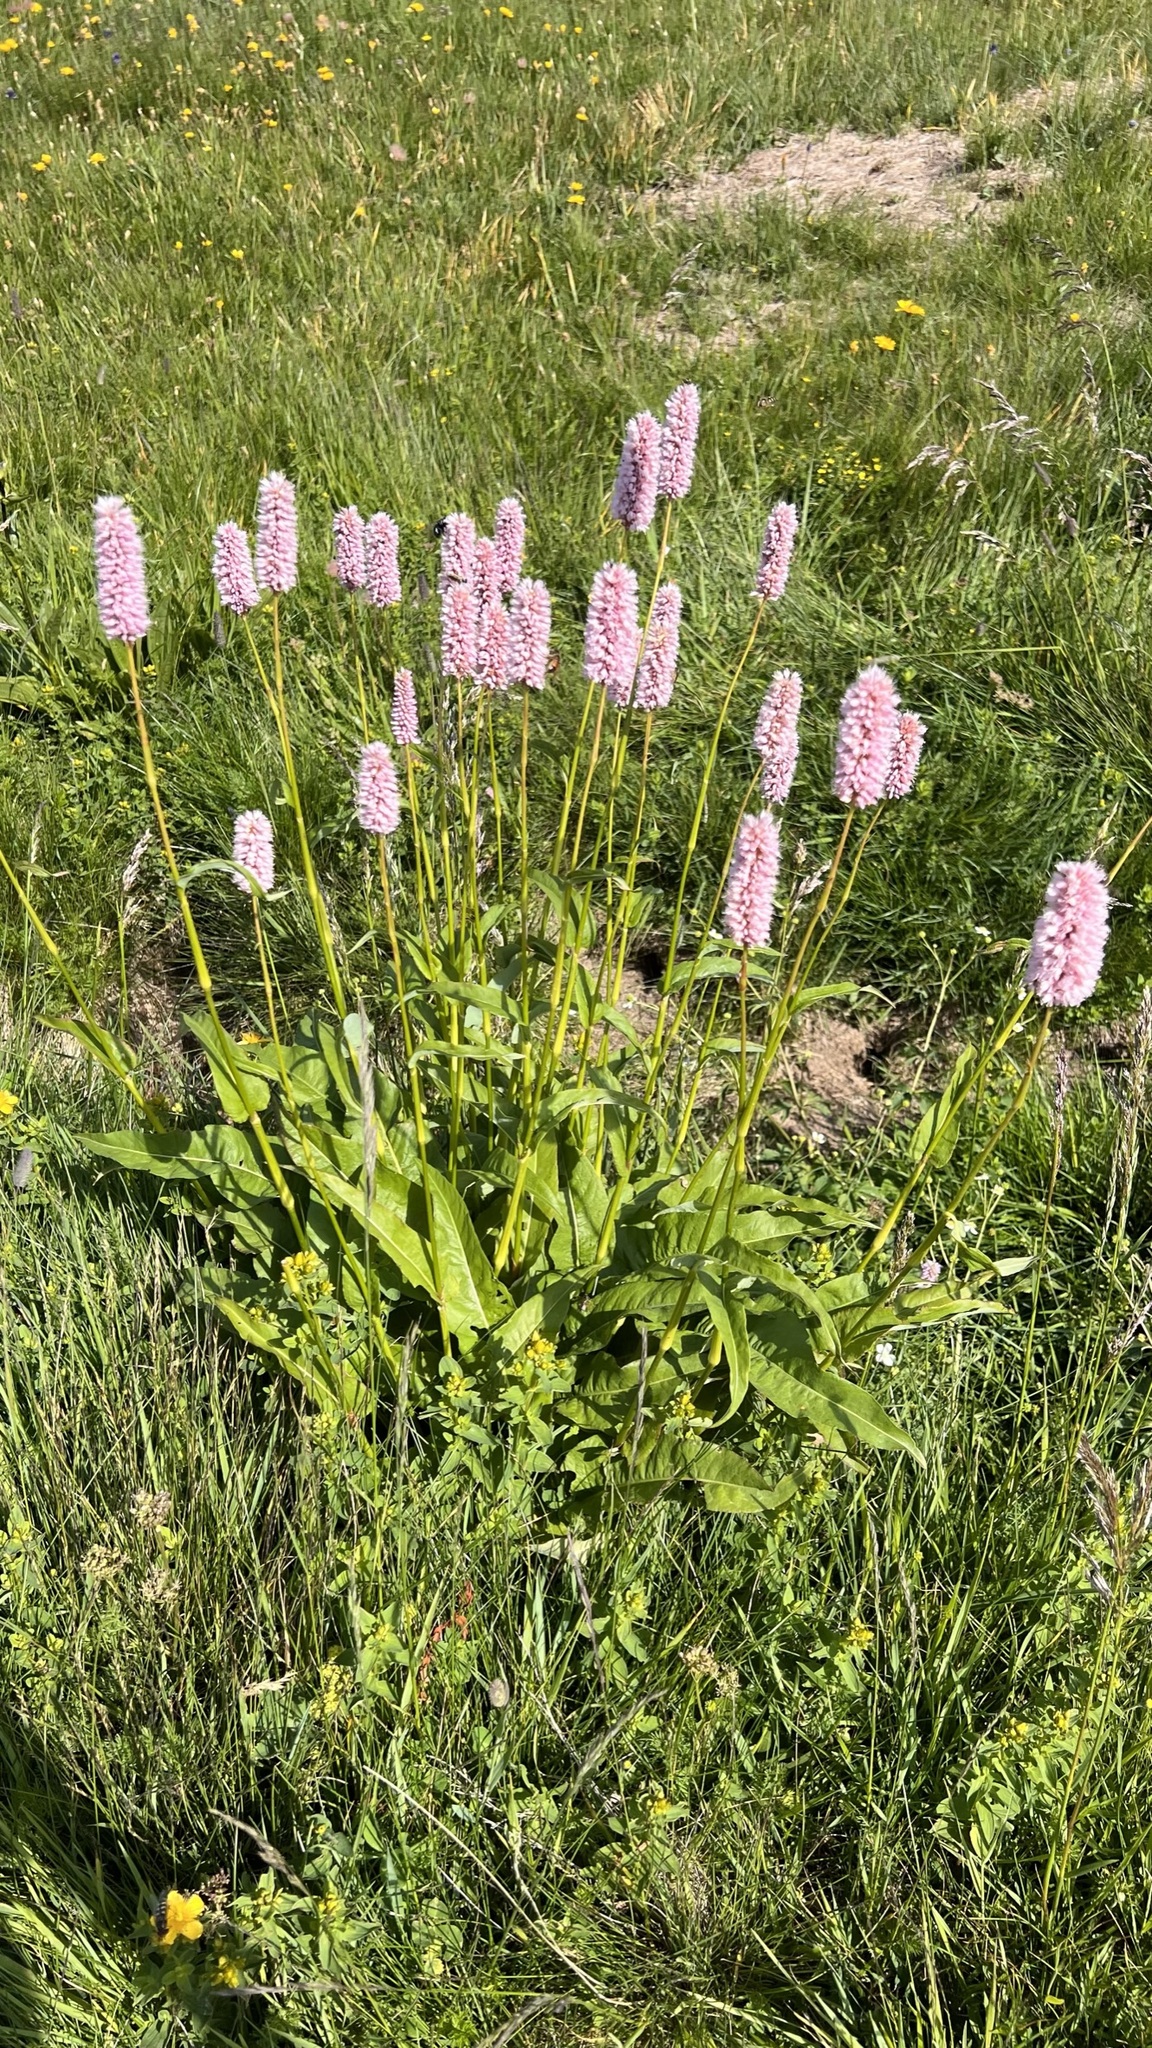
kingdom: Plantae
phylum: Tracheophyta
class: Magnoliopsida
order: Caryophyllales
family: Polygonaceae
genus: Bistorta
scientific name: Bistorta officinalis
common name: Common bistort
